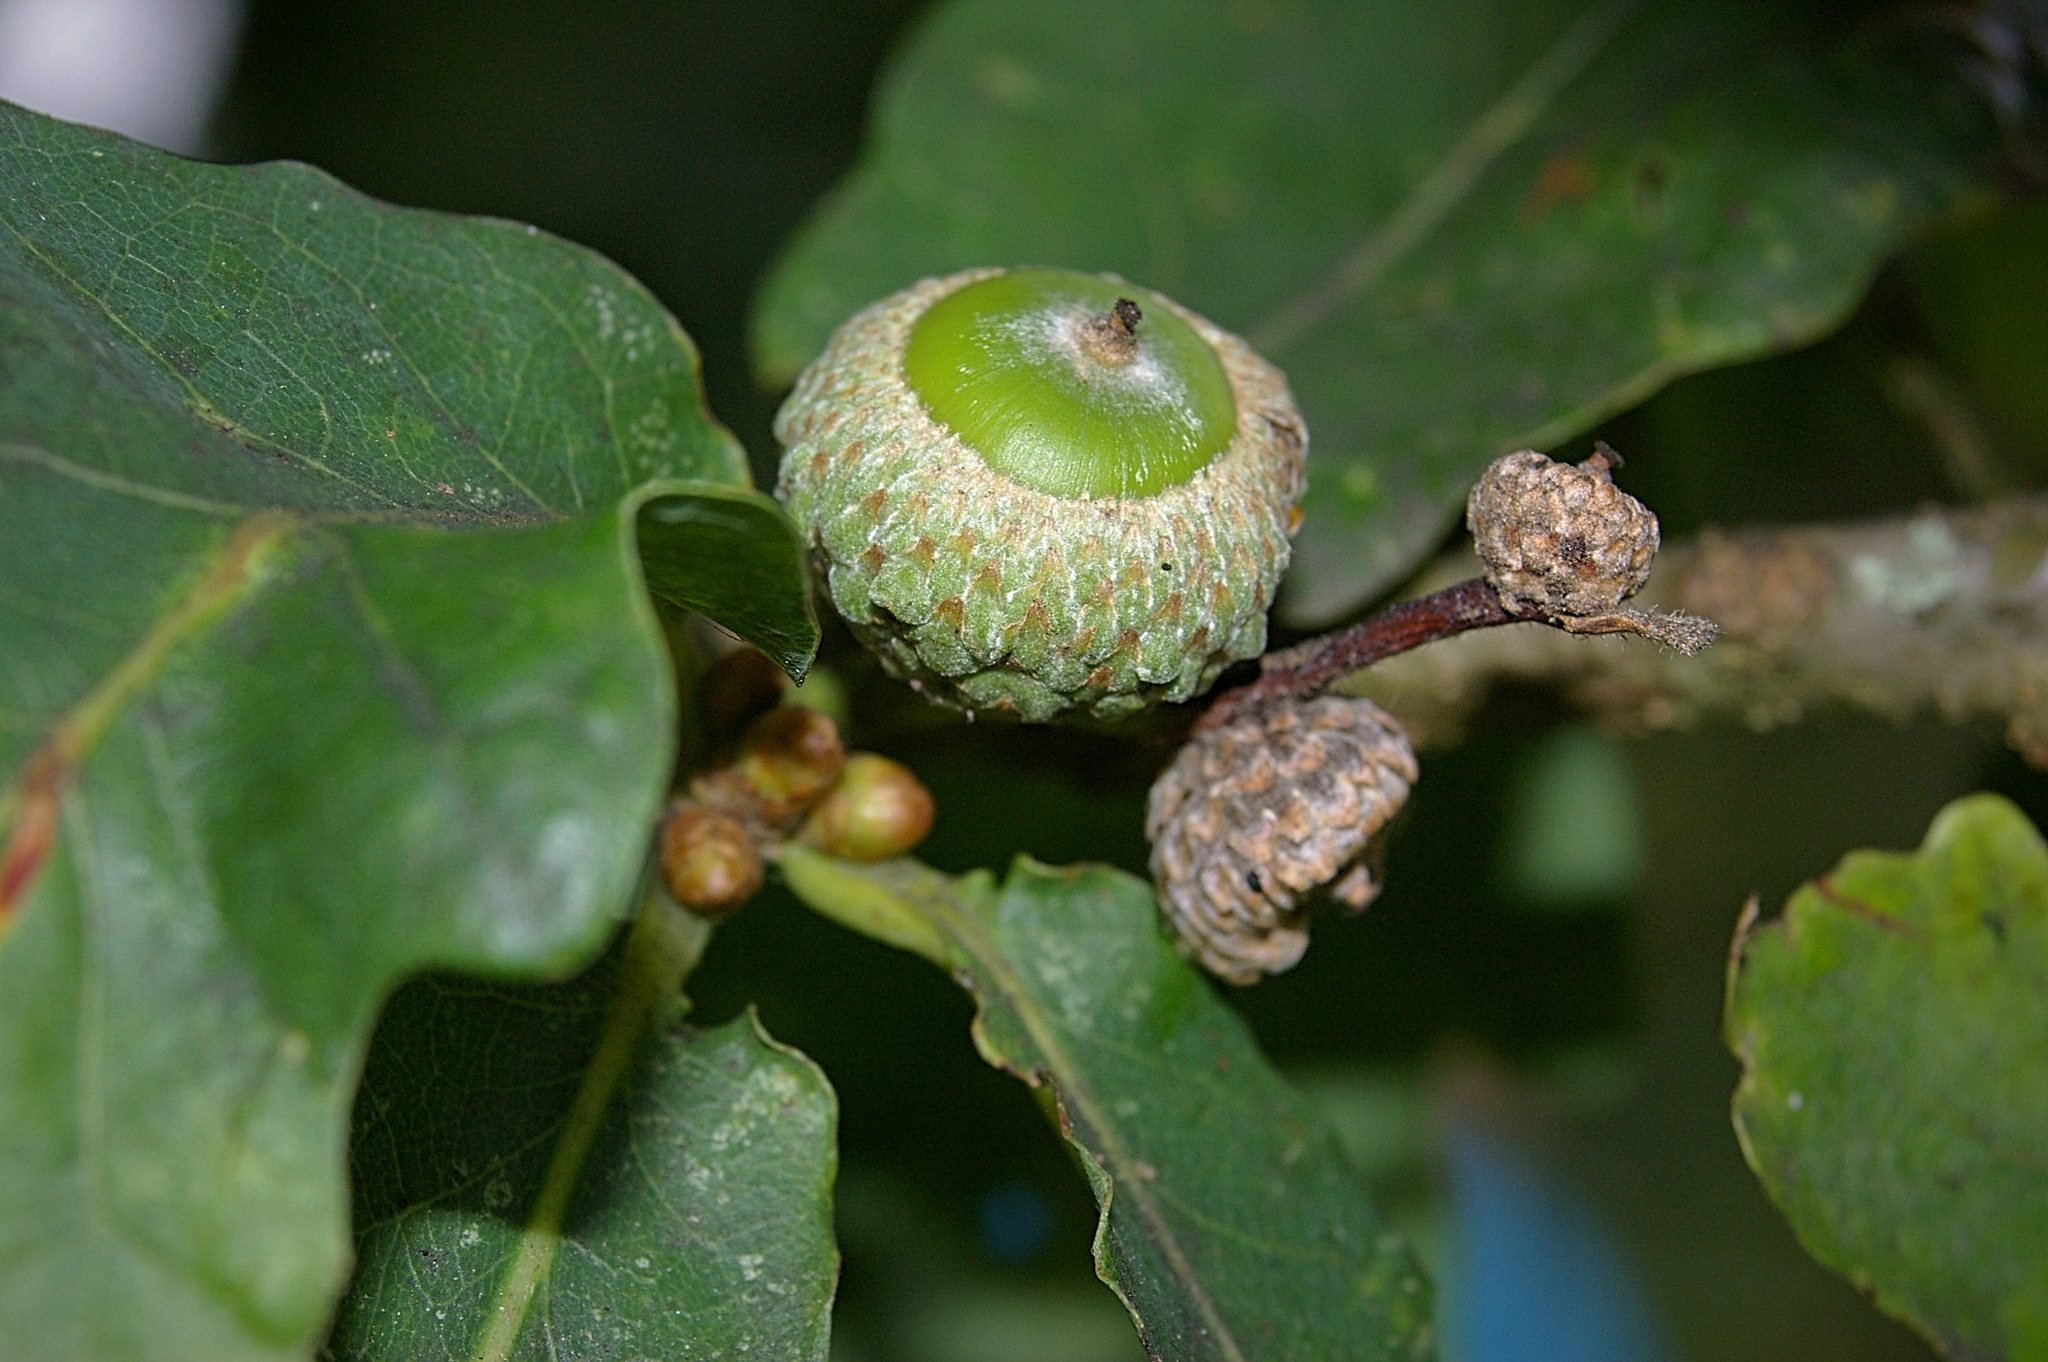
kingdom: Plantae
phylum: Tracheophyta
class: Magnoliopsida
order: Fagales
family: Fagaceae
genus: Quercus
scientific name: Quercus petraea
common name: Sessile oak
